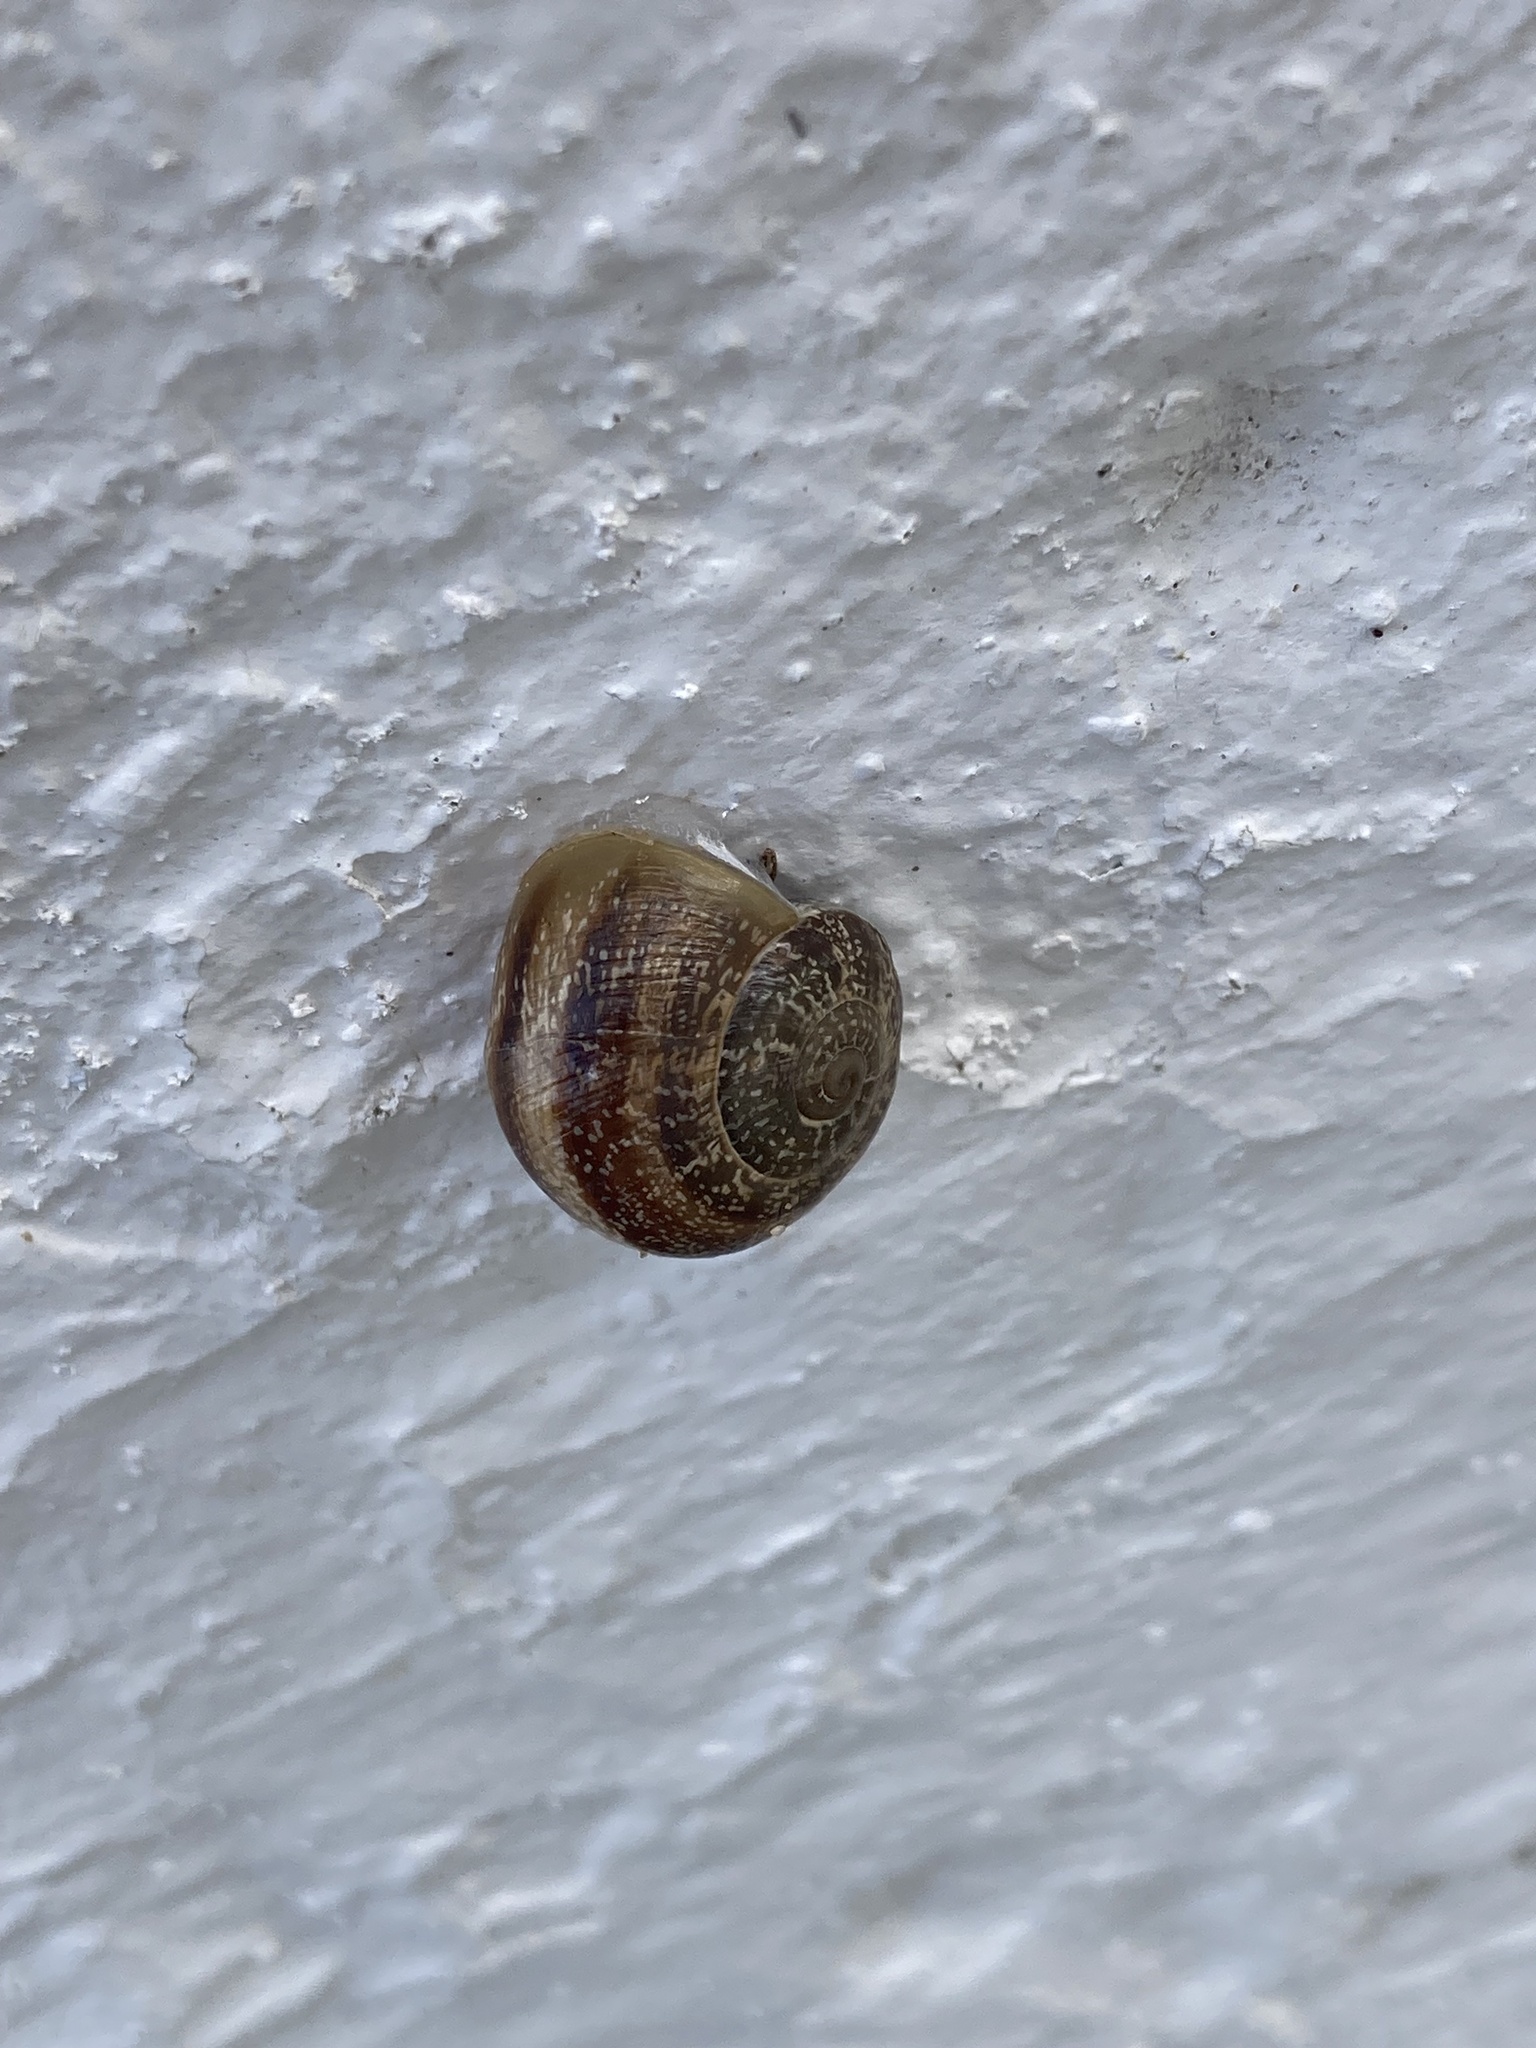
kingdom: Animalia
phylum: Mollusca
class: Gastropoda
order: Stylommatophora
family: Helicidae
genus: Otala
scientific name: Otala lactea
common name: Milk snail
